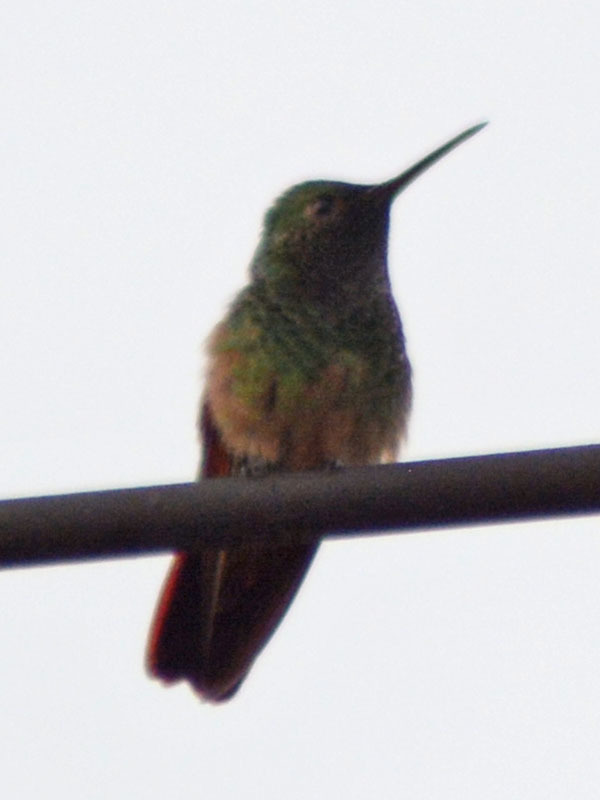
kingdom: Animalia
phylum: Chordata
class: Aves
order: Apodiformes
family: Trochilidae
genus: Saucerottia
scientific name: Saucerottia beryllina
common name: Berylline hummingbird
